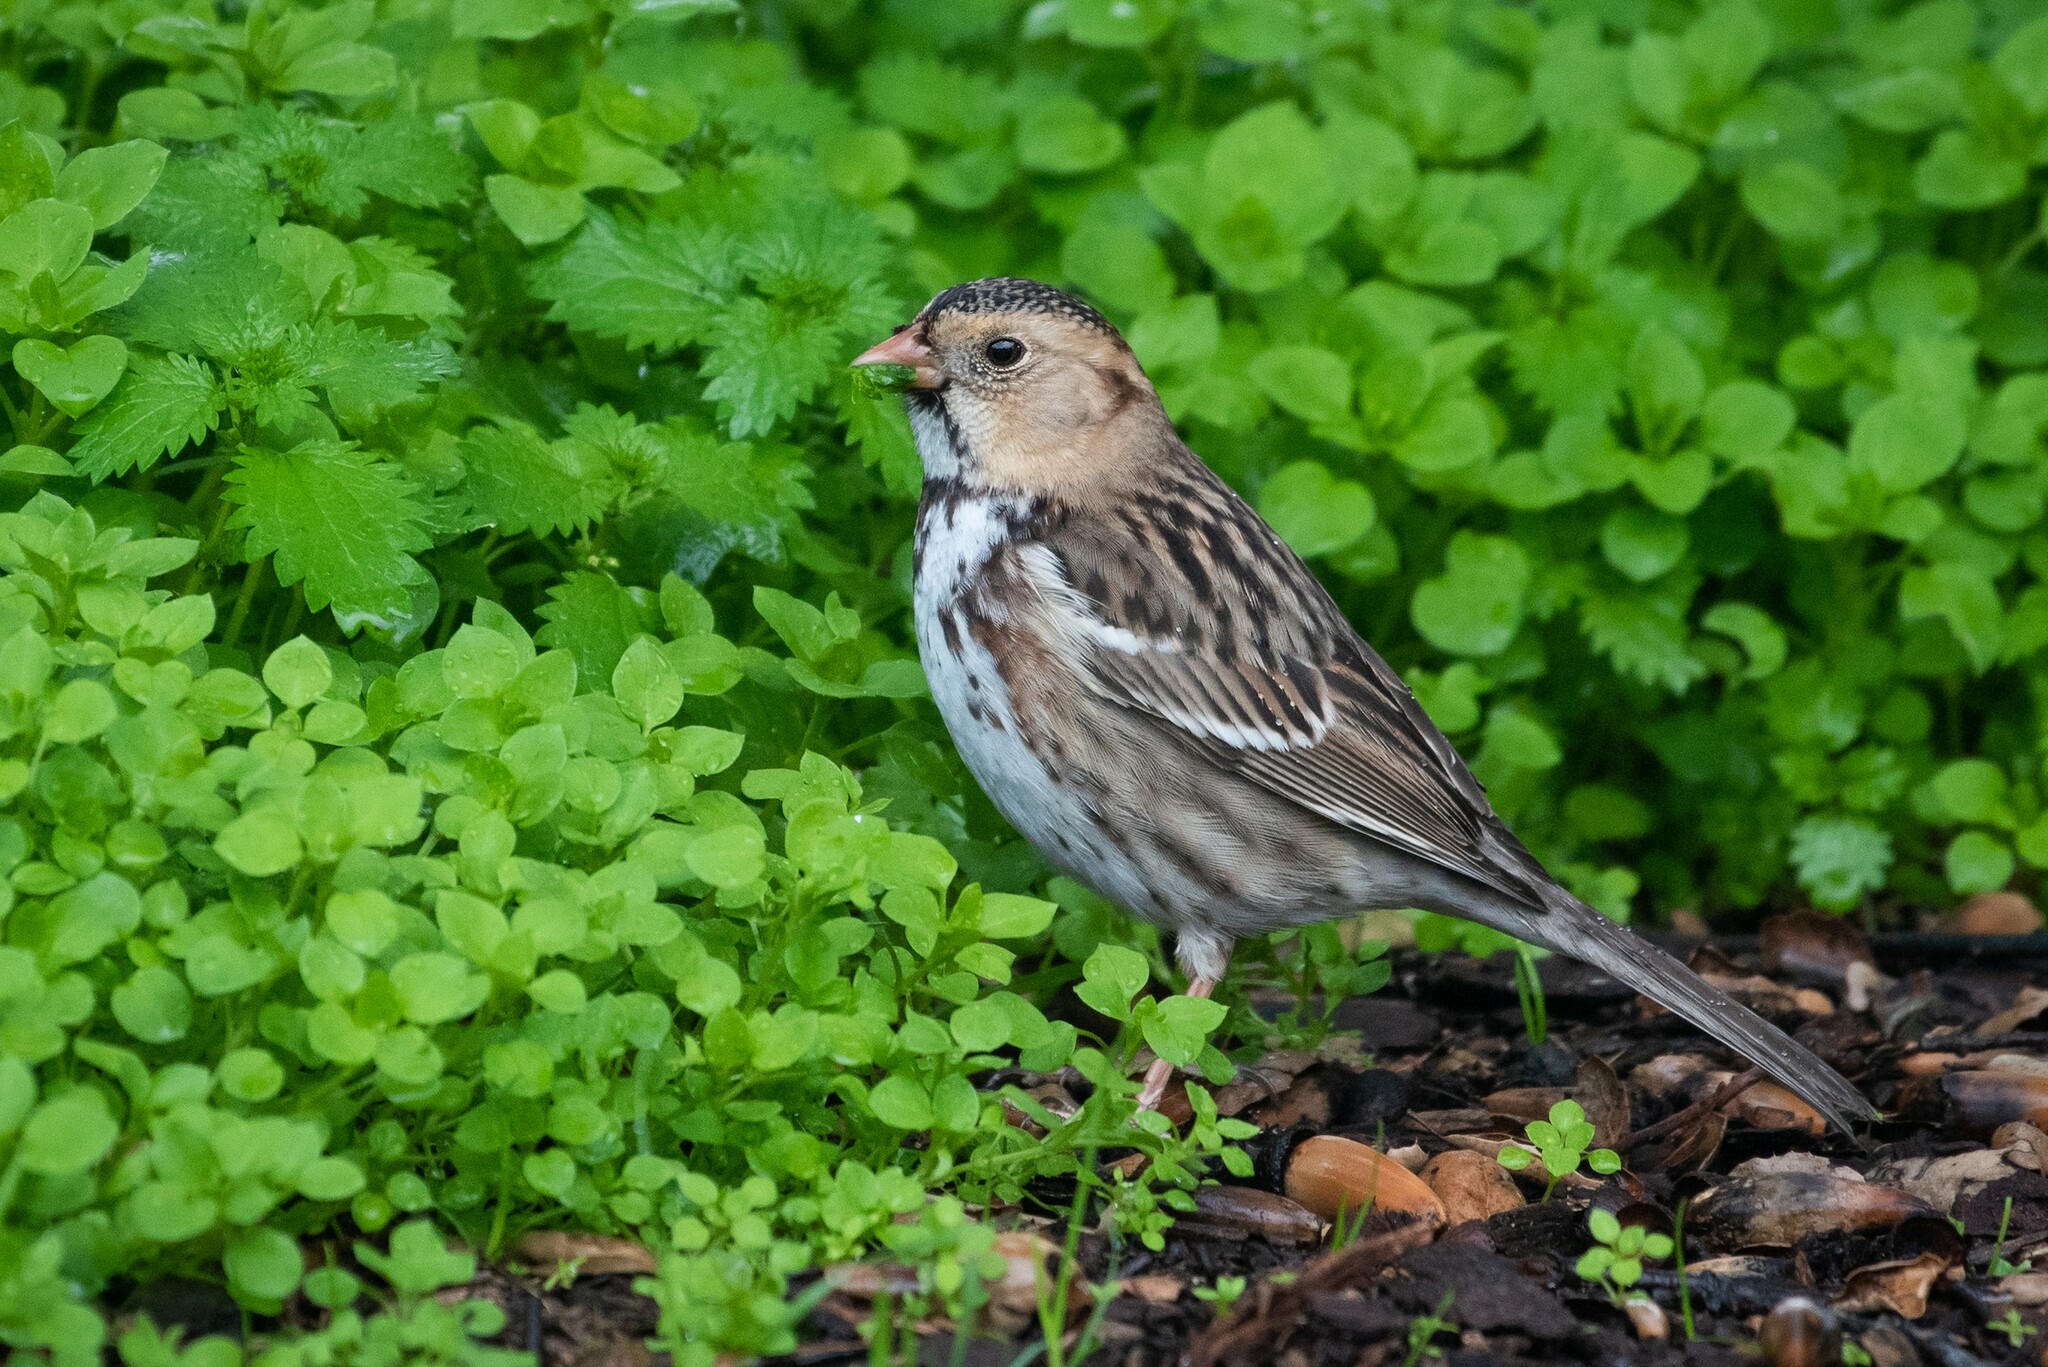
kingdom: Animalia
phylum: Chordata
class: Aves
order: Passeriformes
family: Passerellidae
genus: Zonotrichia
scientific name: Zonotrichia querula
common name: Harris's sparrow
